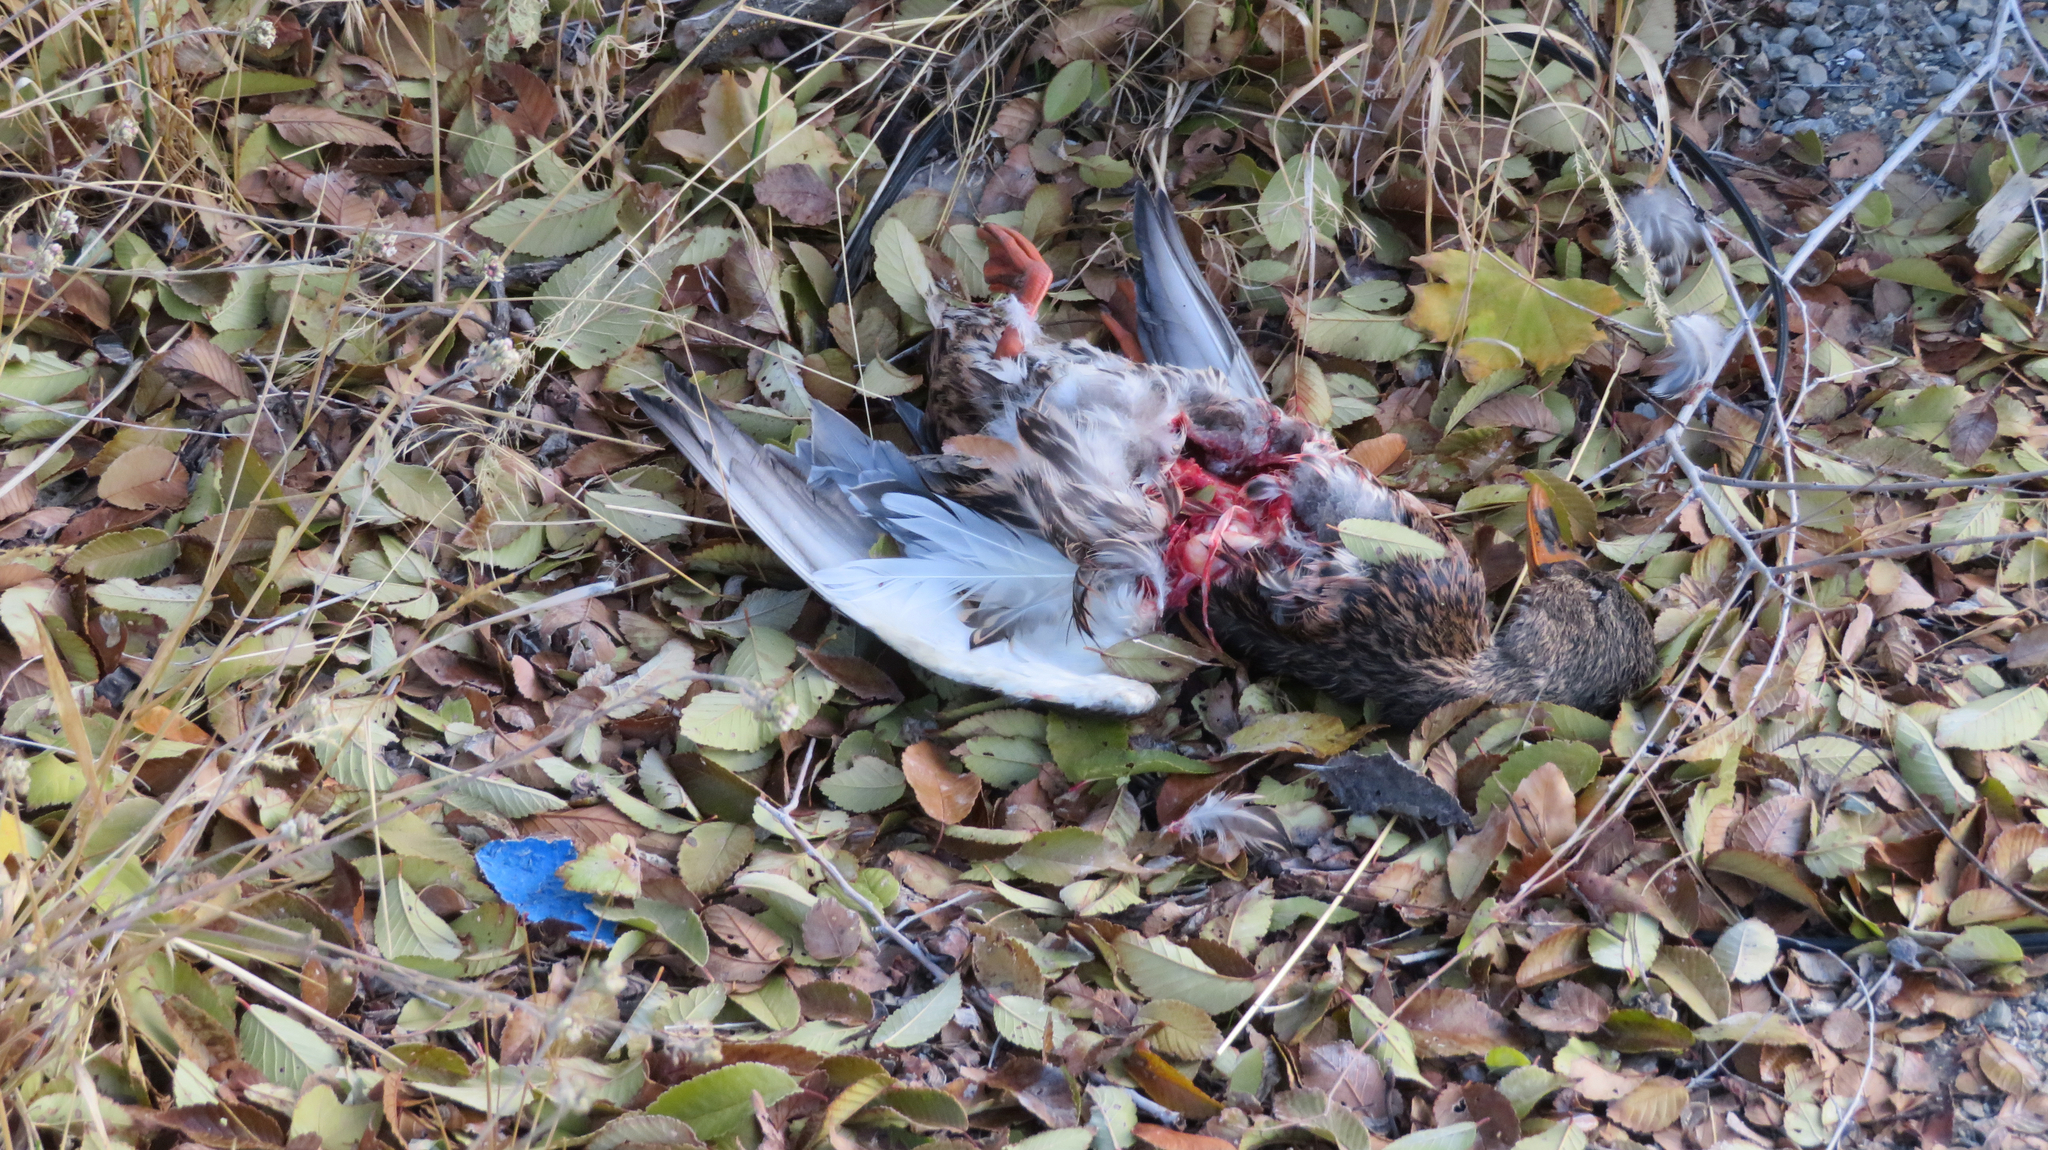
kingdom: Animalia
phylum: Chordata
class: Aves
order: Anseriformes
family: Anatidae
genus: Anas
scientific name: Anas platyrhynchos
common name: Mallard
